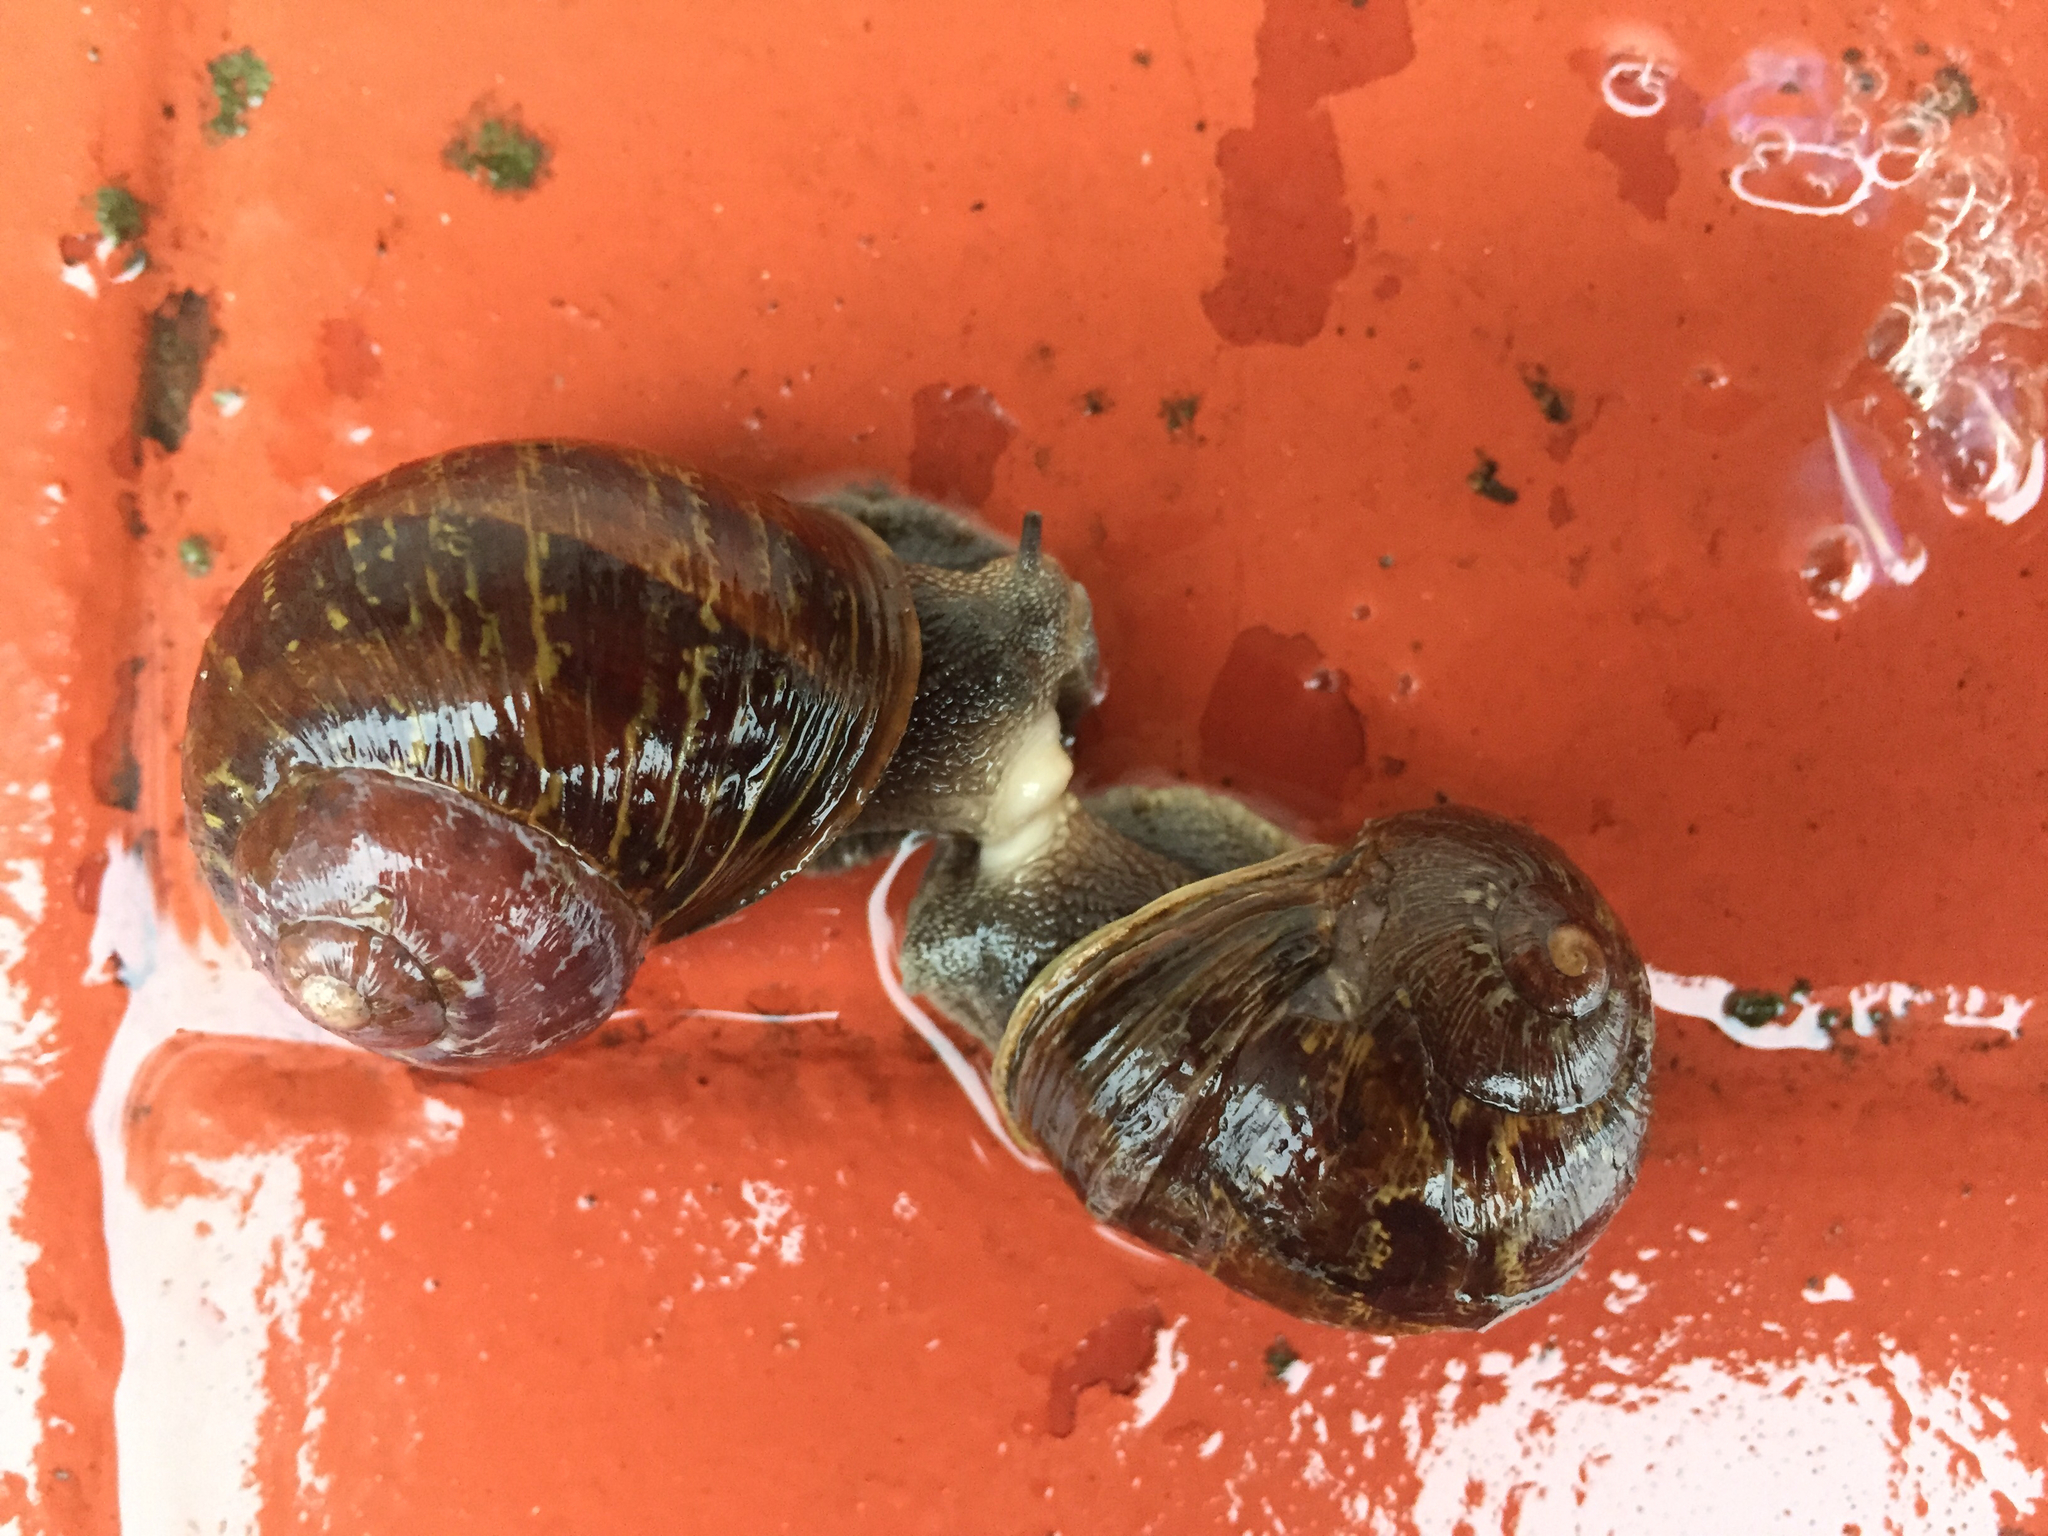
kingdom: Animalia
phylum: Mollusca
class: Gastropoda
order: Stylommatophora
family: Helicidae
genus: Cornu
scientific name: Cornu aspersum
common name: Brown garden snail
